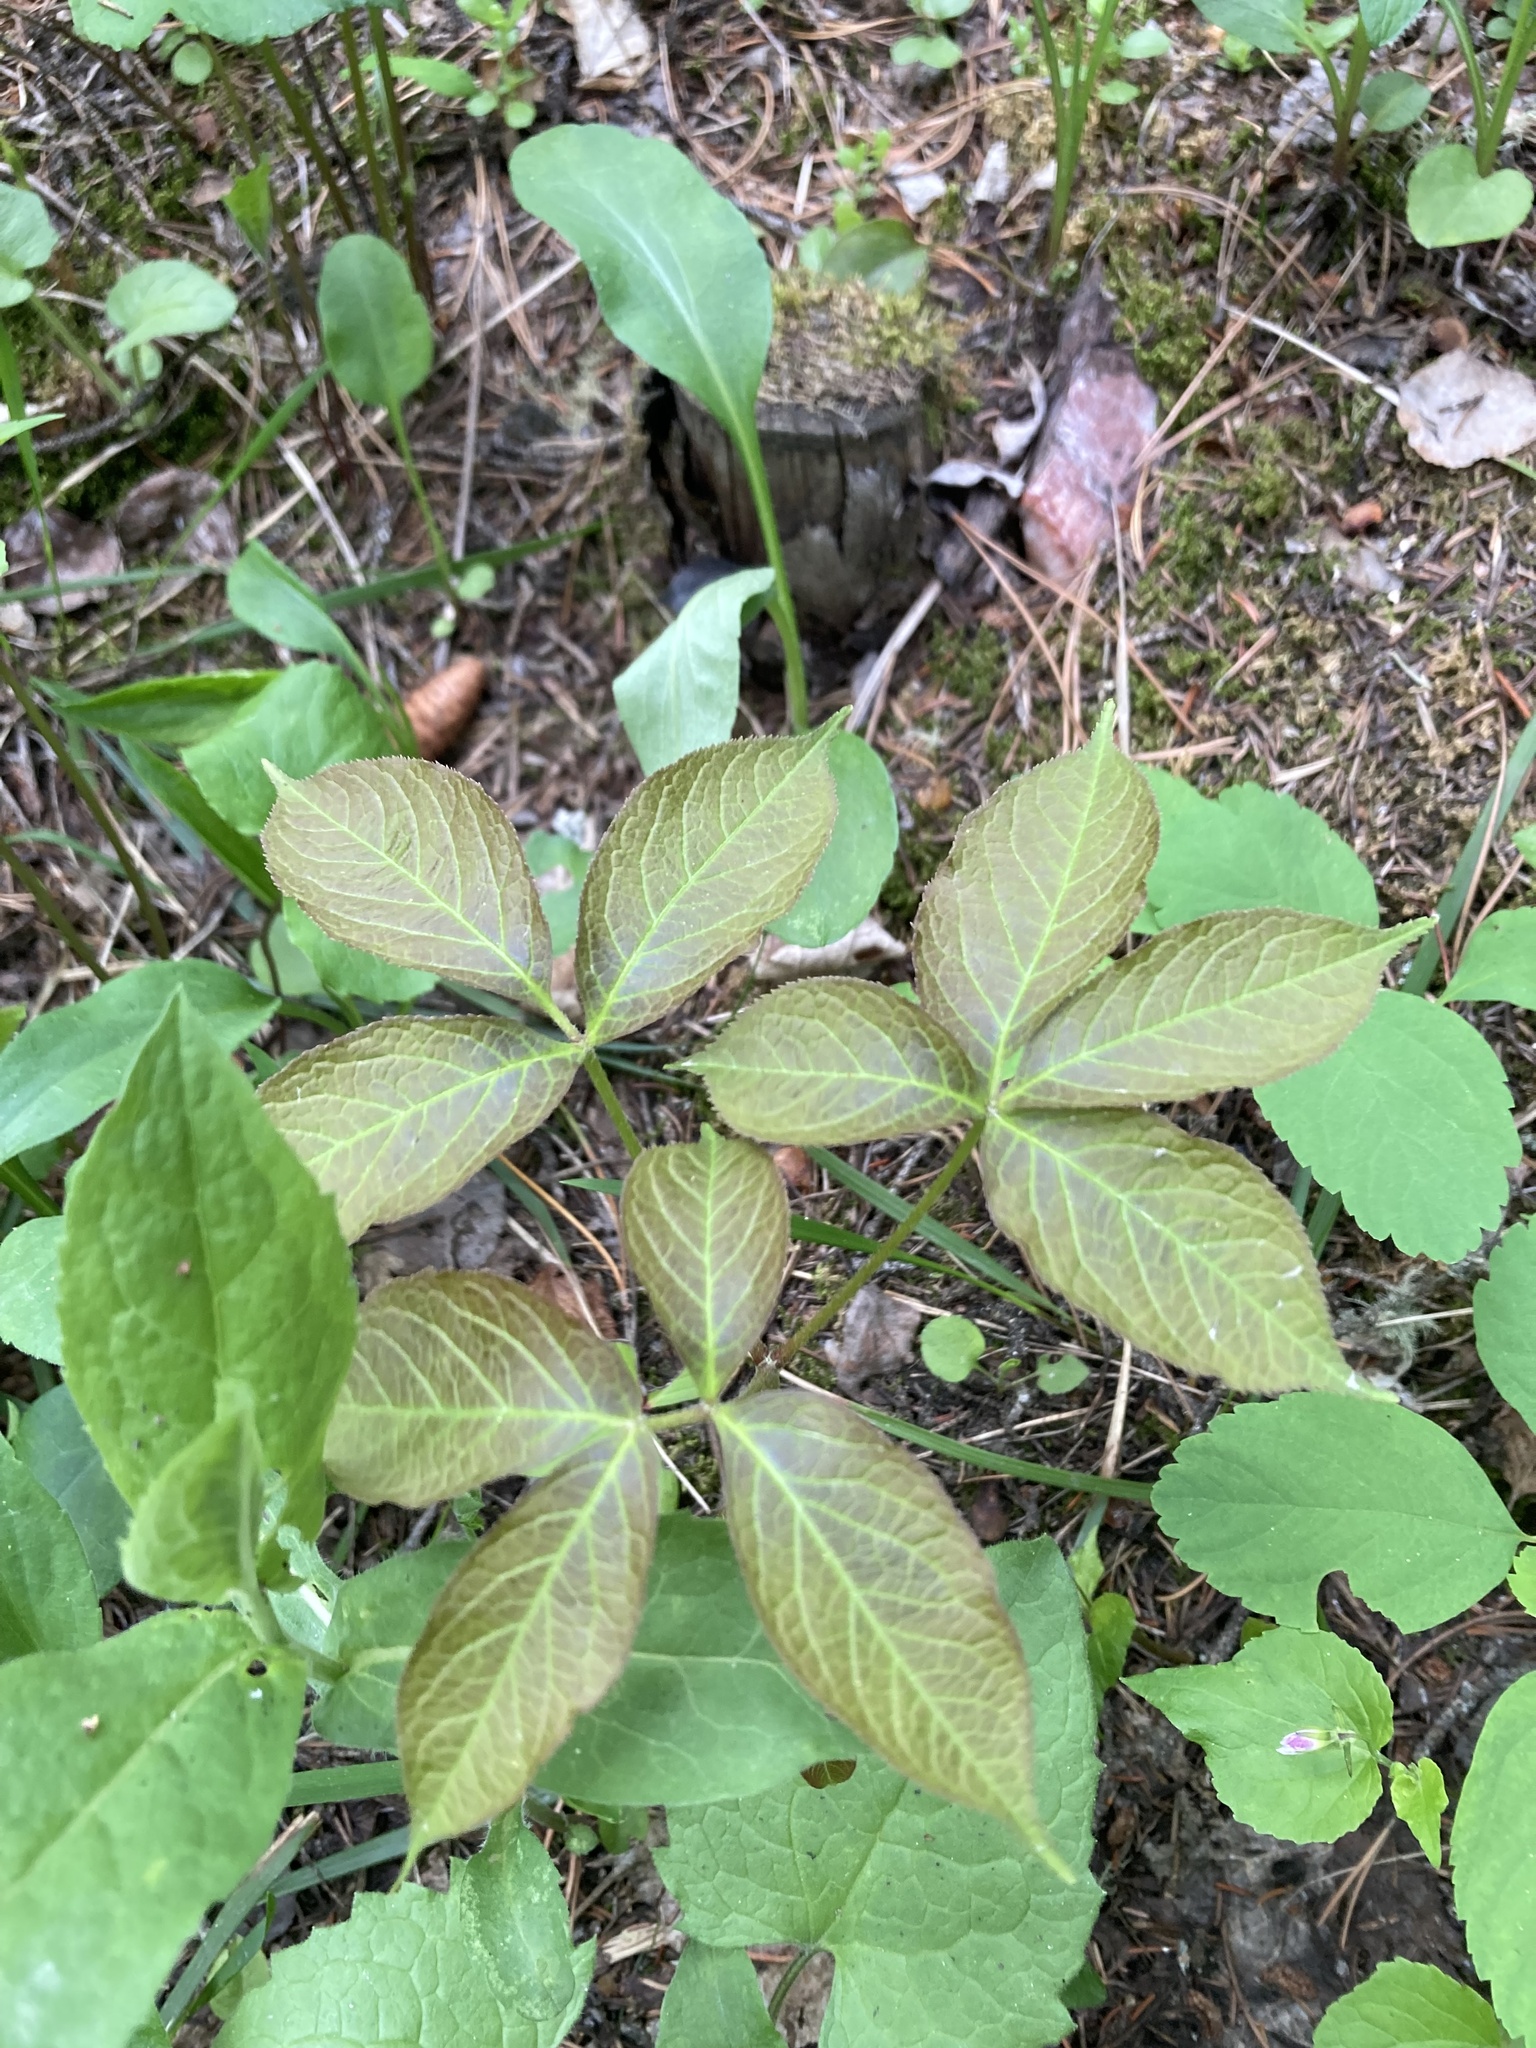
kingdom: Plantae
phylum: Tracheophyta
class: Magnoliopsida
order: Apiales
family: Araliaceae
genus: Aralia
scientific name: Aralia nudicaulis
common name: Wild sarsaparilla
